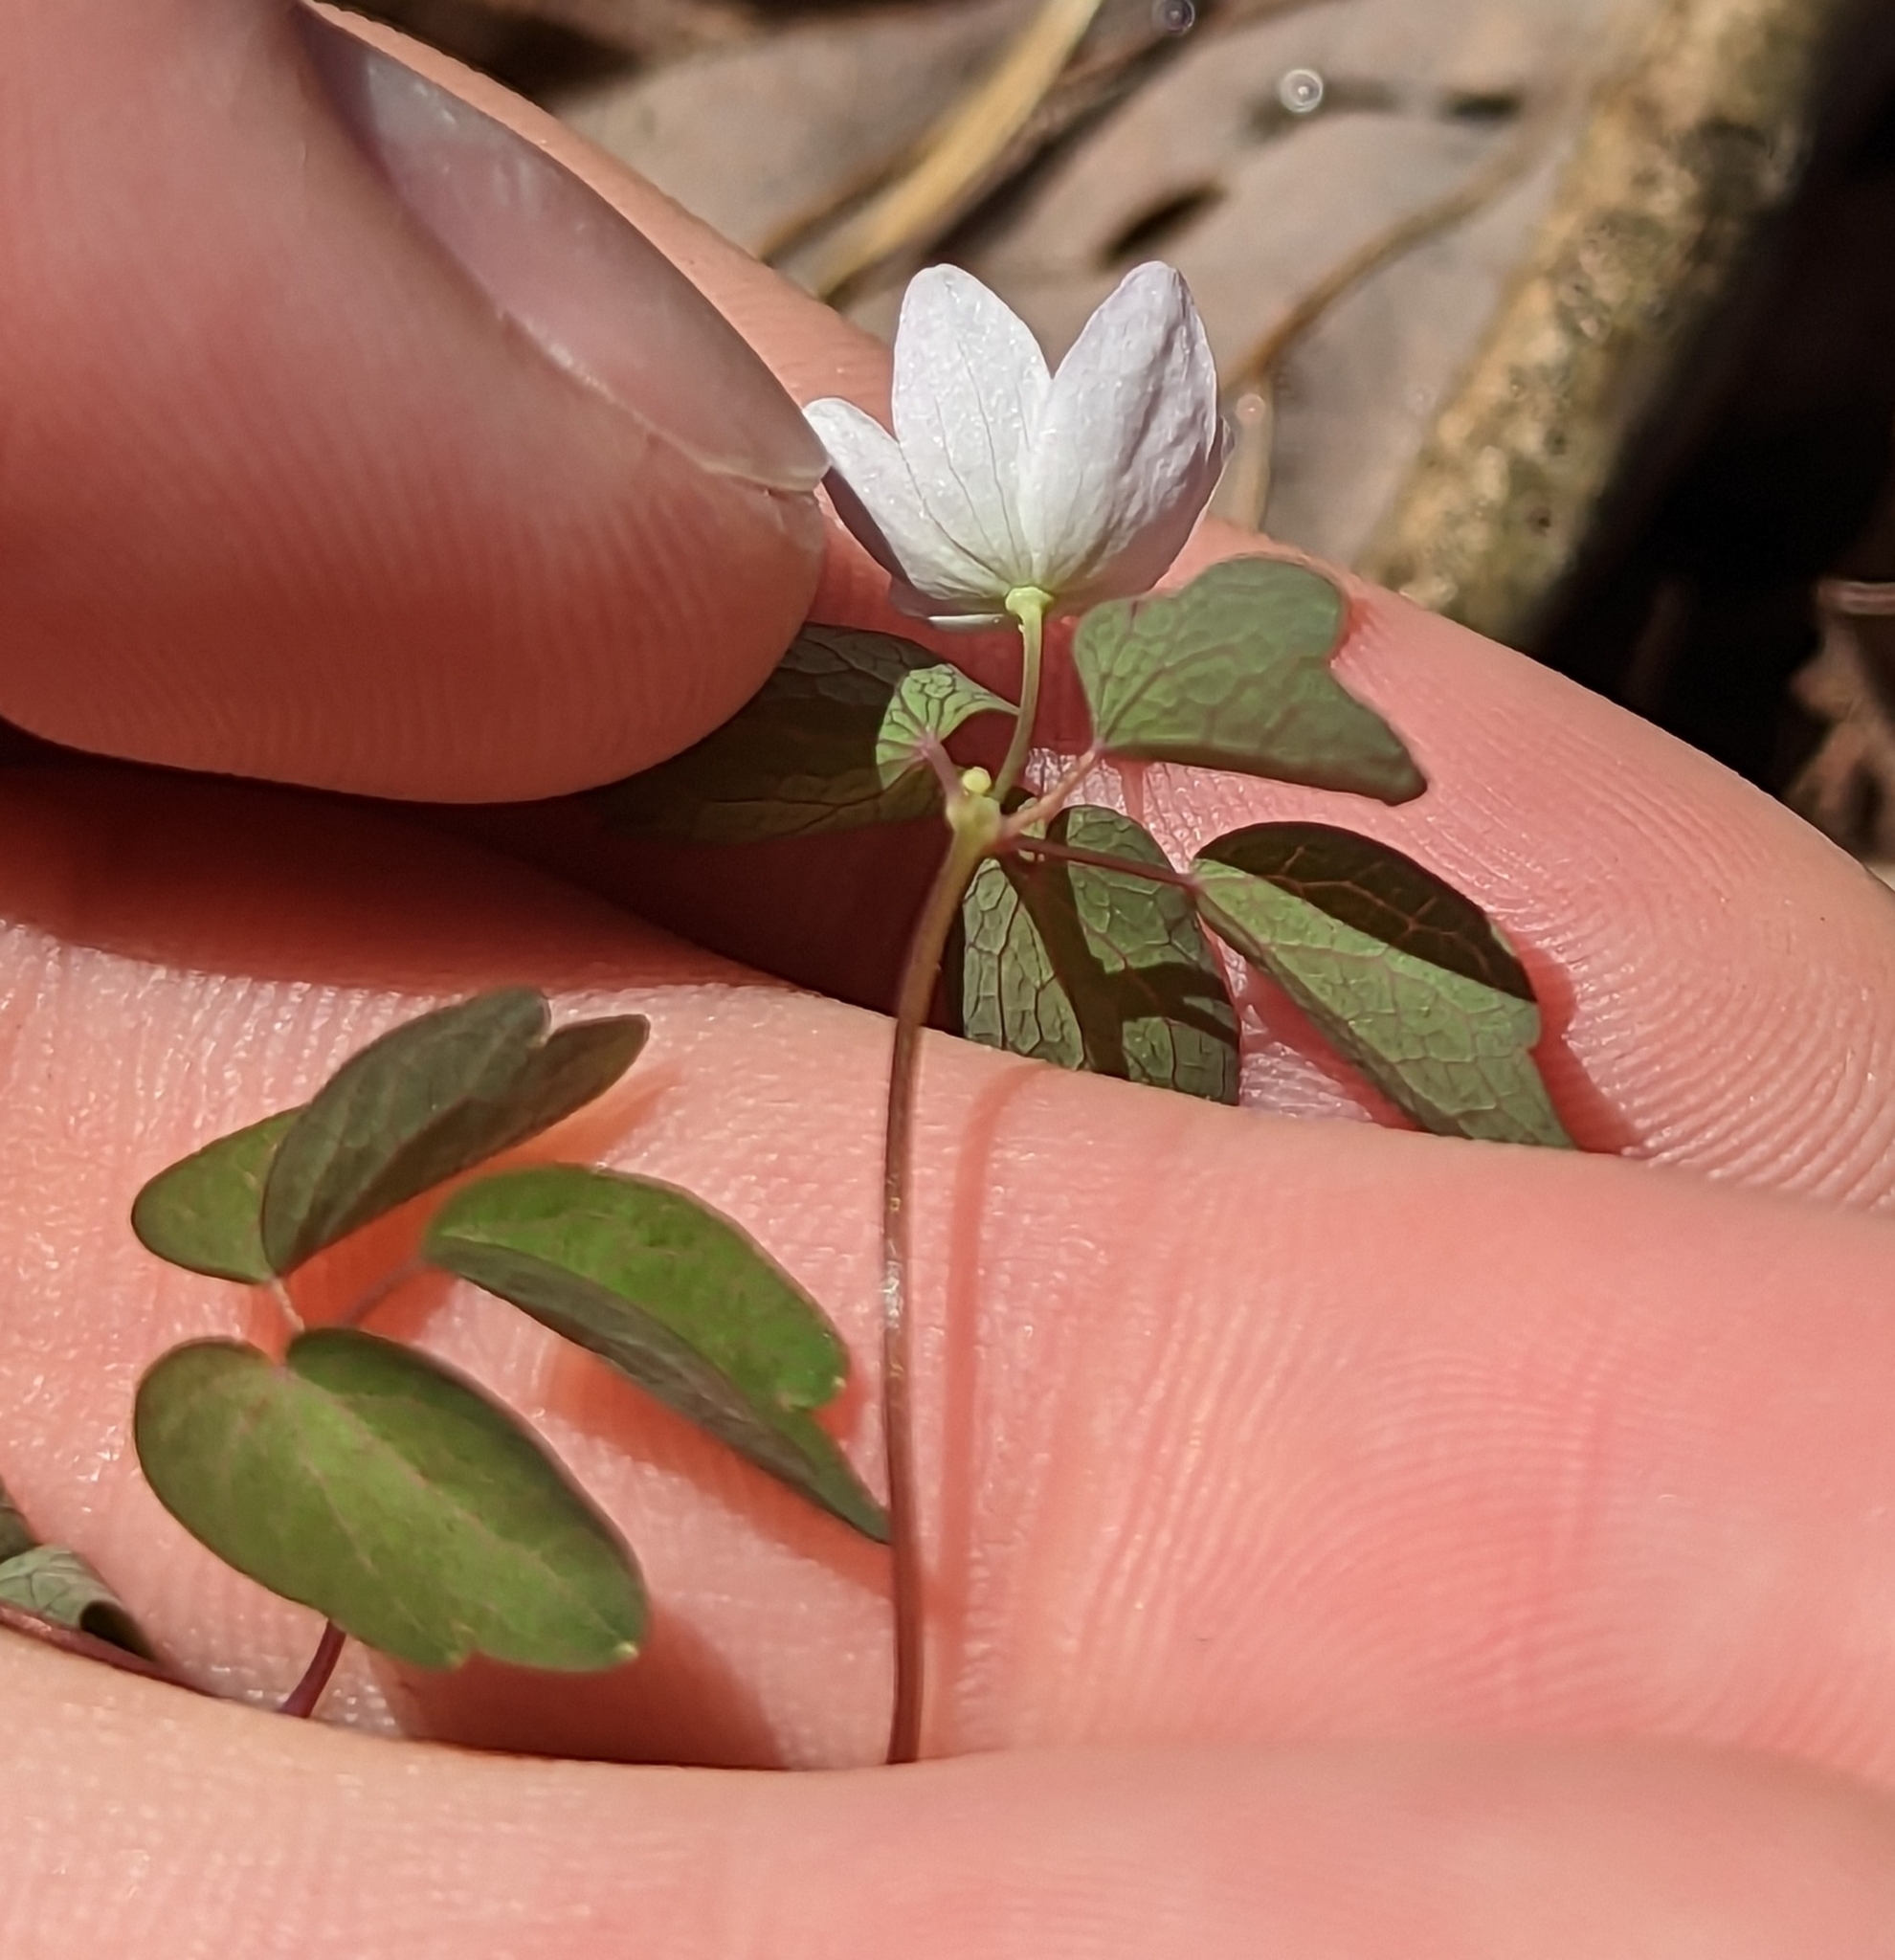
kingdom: Plantae
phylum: Tracheophyta
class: Magnoliopsida
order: Ranunculales
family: Ranunculaceae
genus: Thalictrum
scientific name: Thalictrum thalictroides
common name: Rue-anemone
